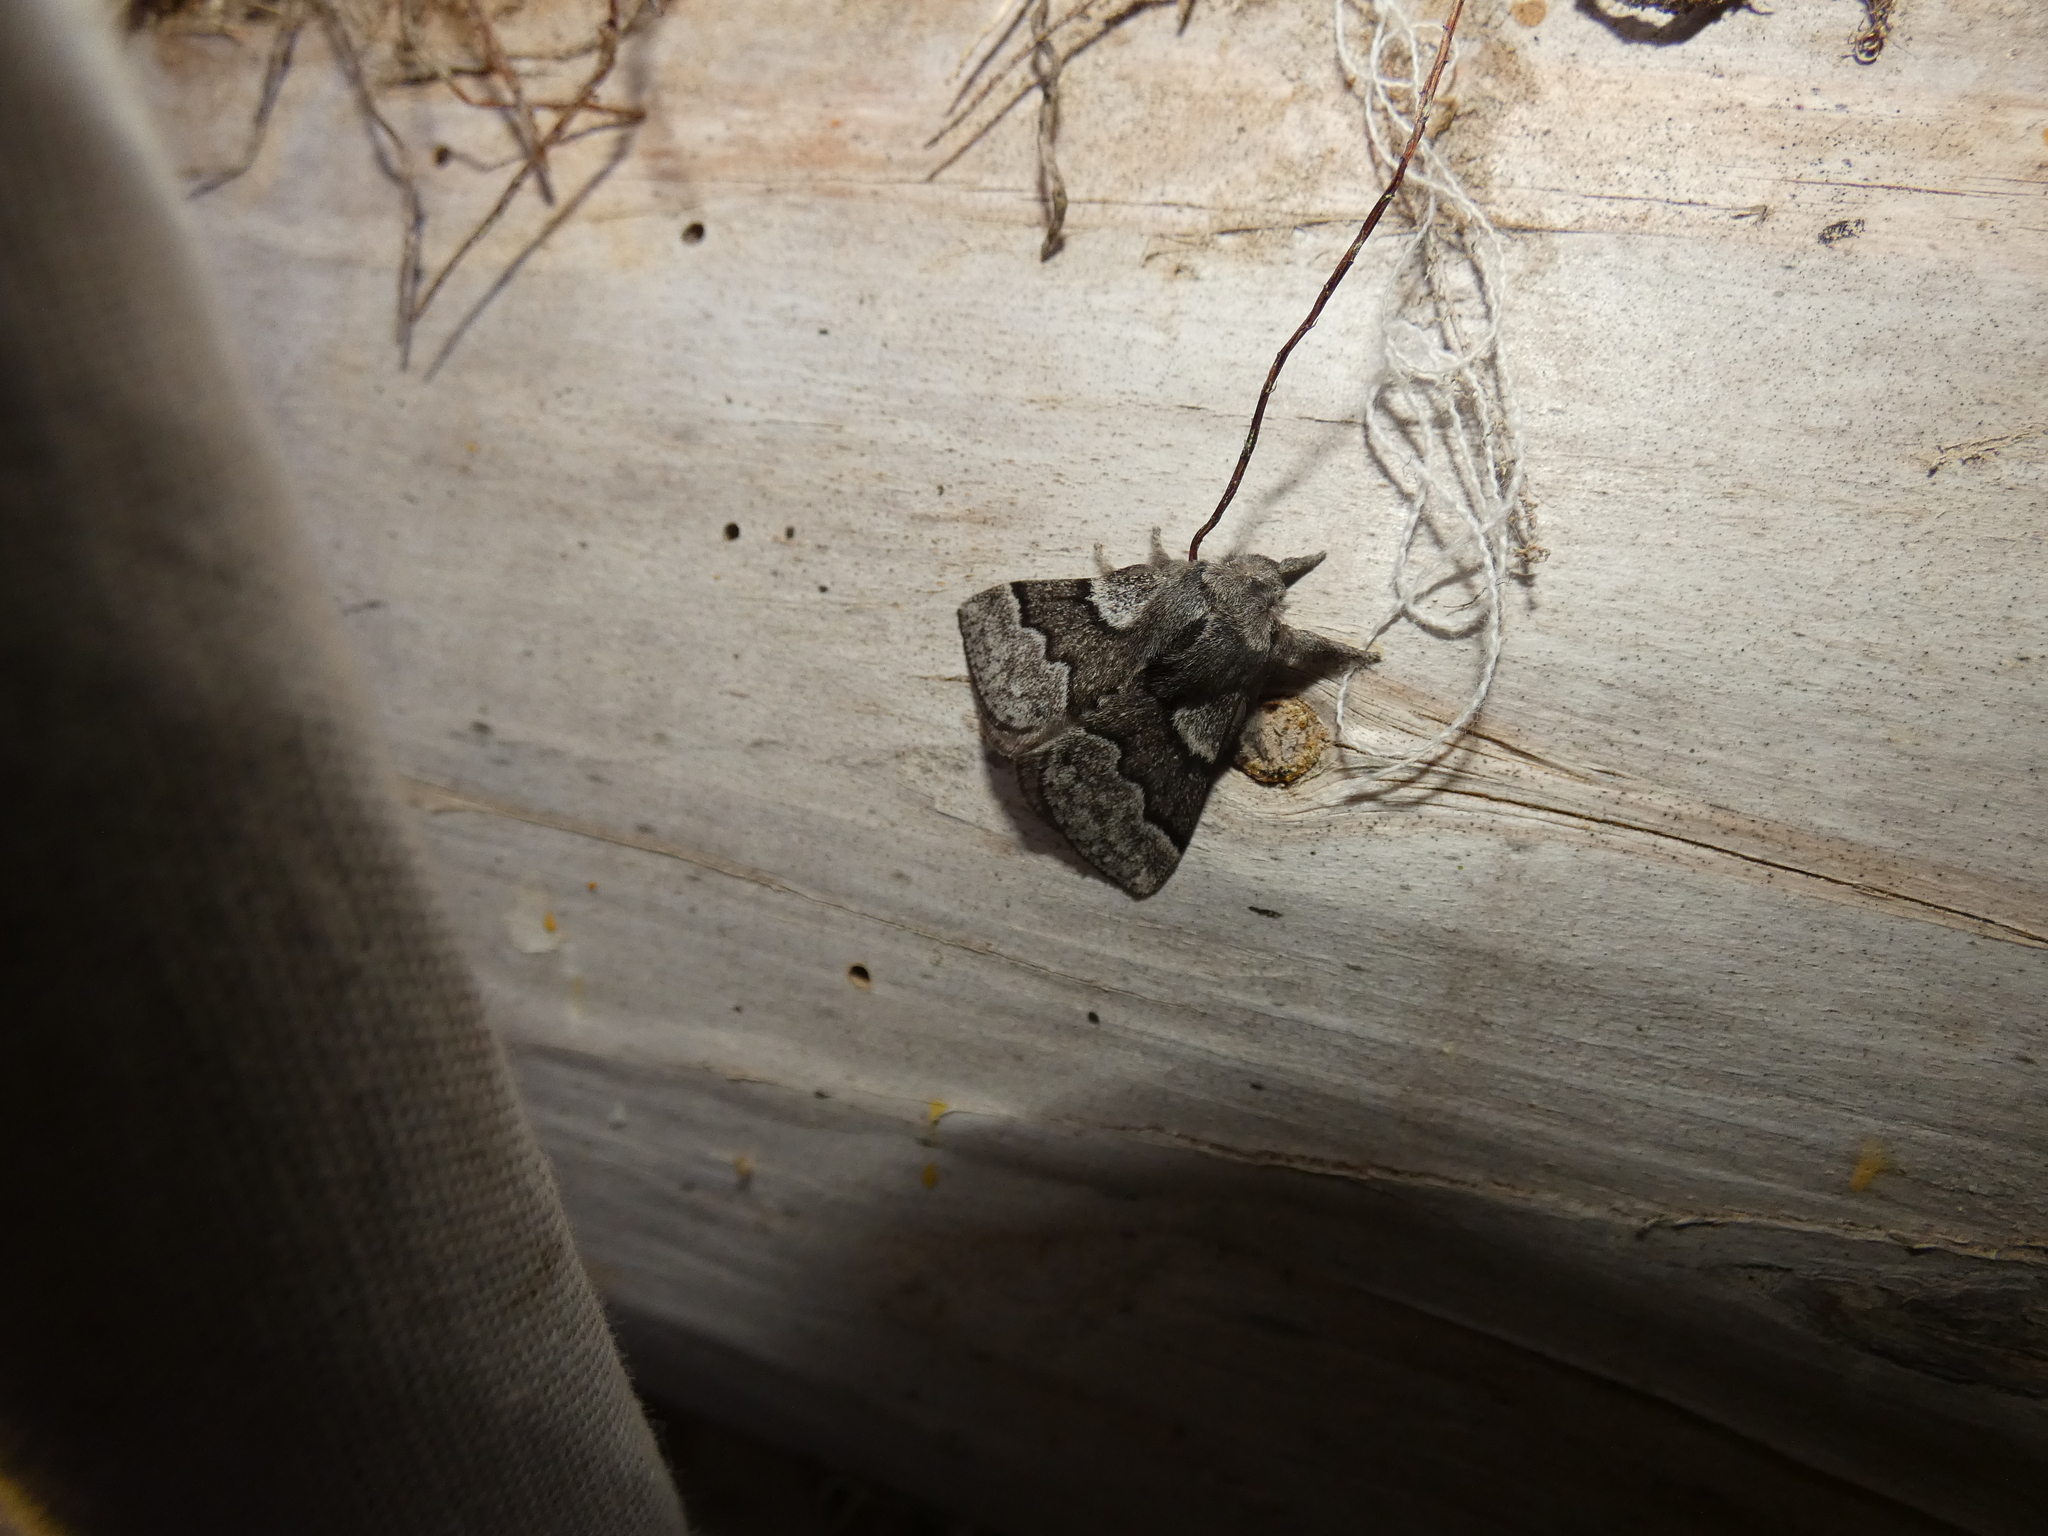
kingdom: Animalia
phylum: Arthropoda
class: Insecta
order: Lepidoptera
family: Lasiocampidae
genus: Trichiura
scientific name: Trichiura crataegi
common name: Pale eggar
